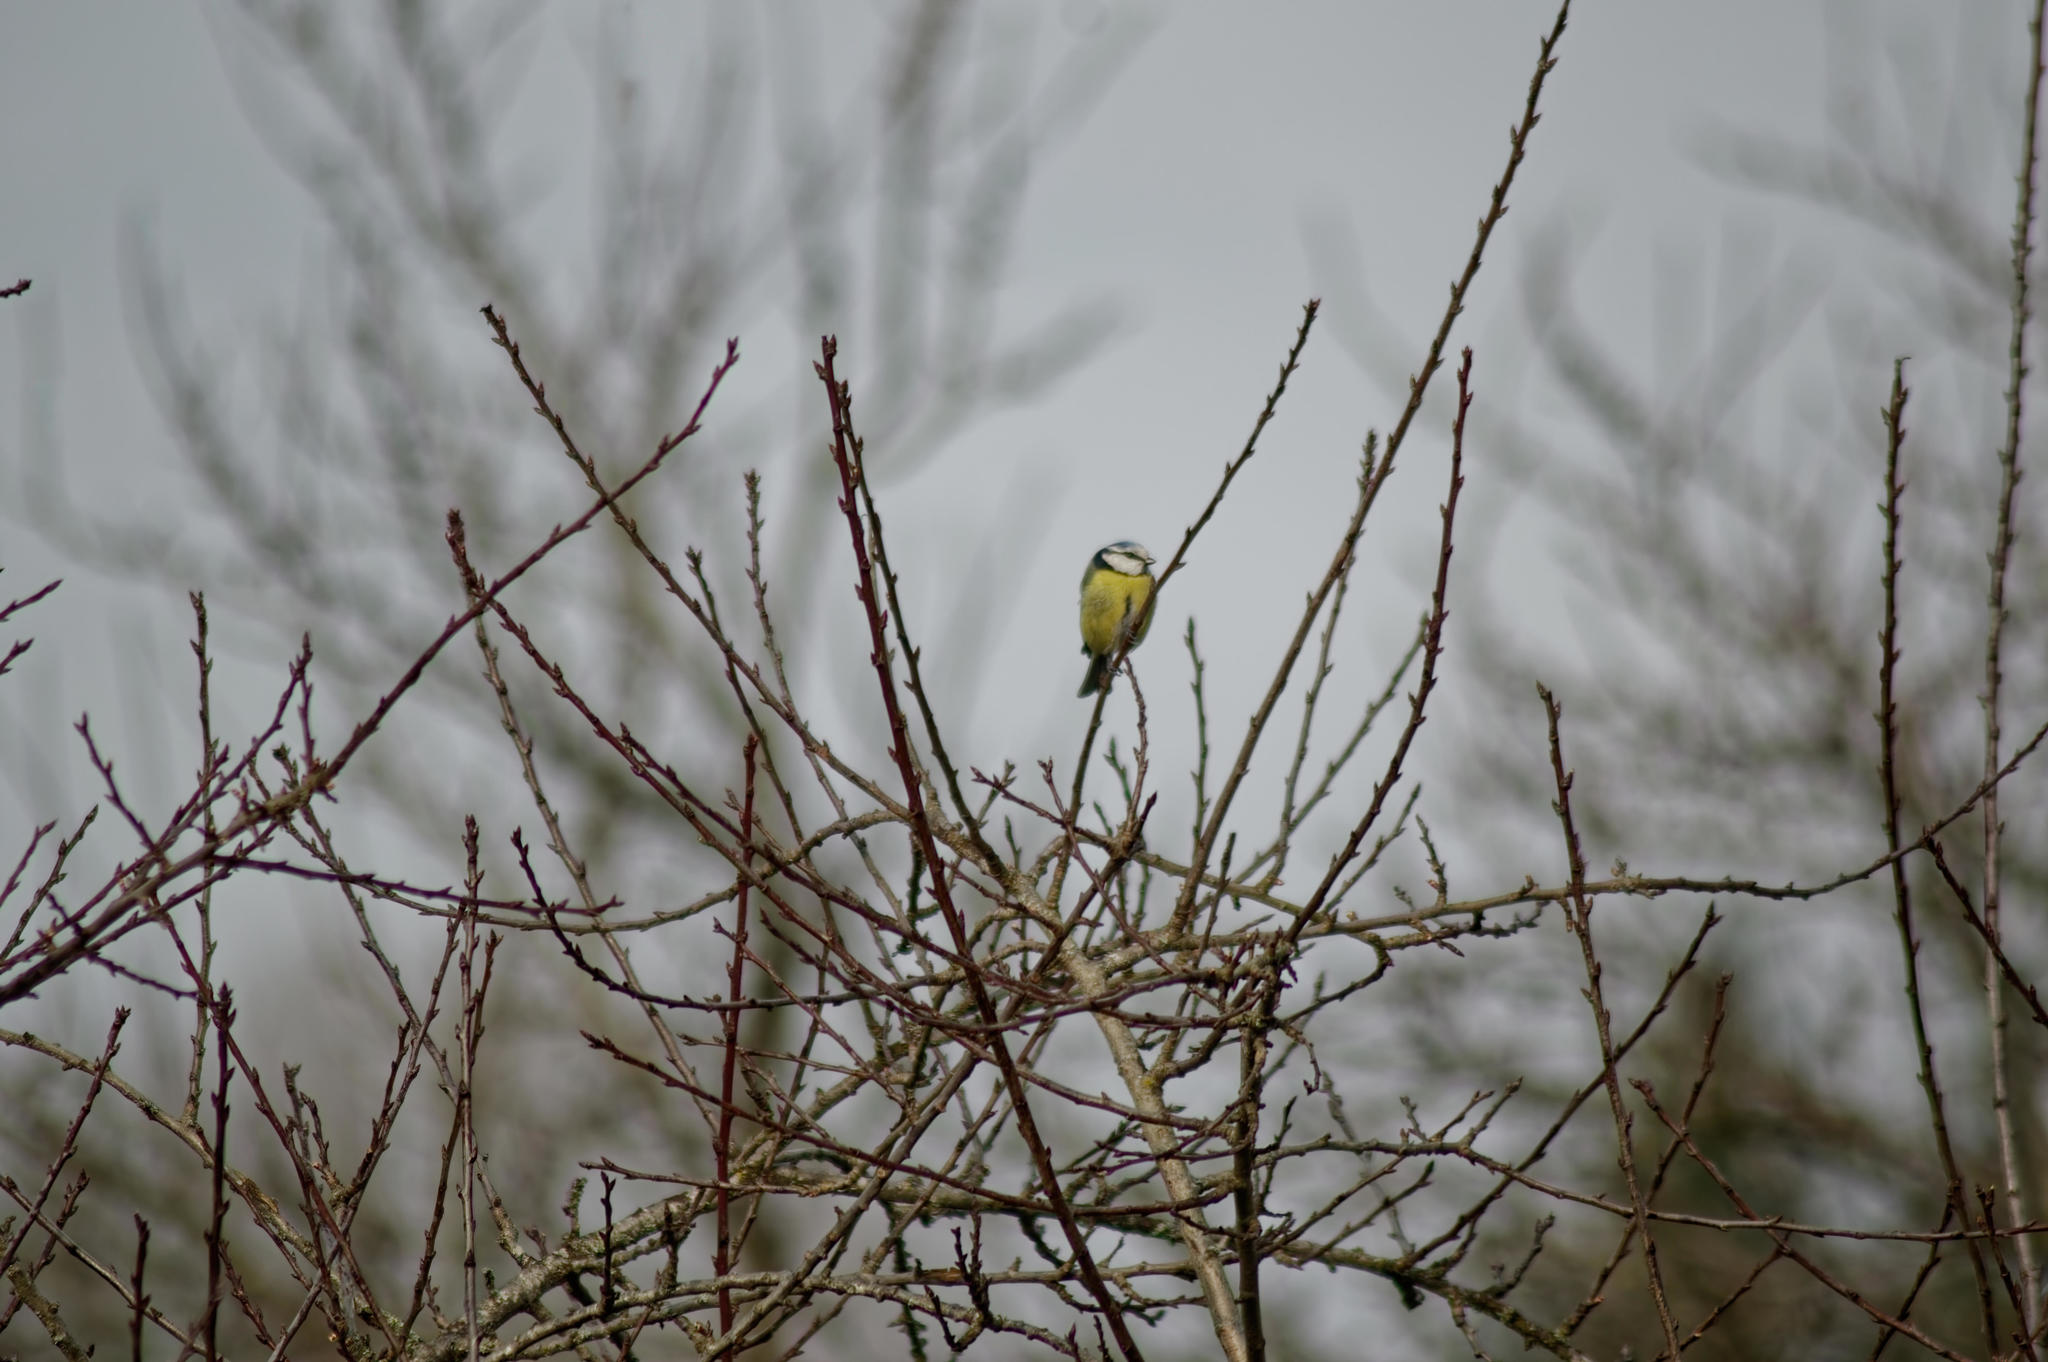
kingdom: Animalia
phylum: Chordata
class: Aves
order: Passeriformes
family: Paridae
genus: Cyanistes
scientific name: Cyanistes caeruleus
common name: Eurasian blue tit
